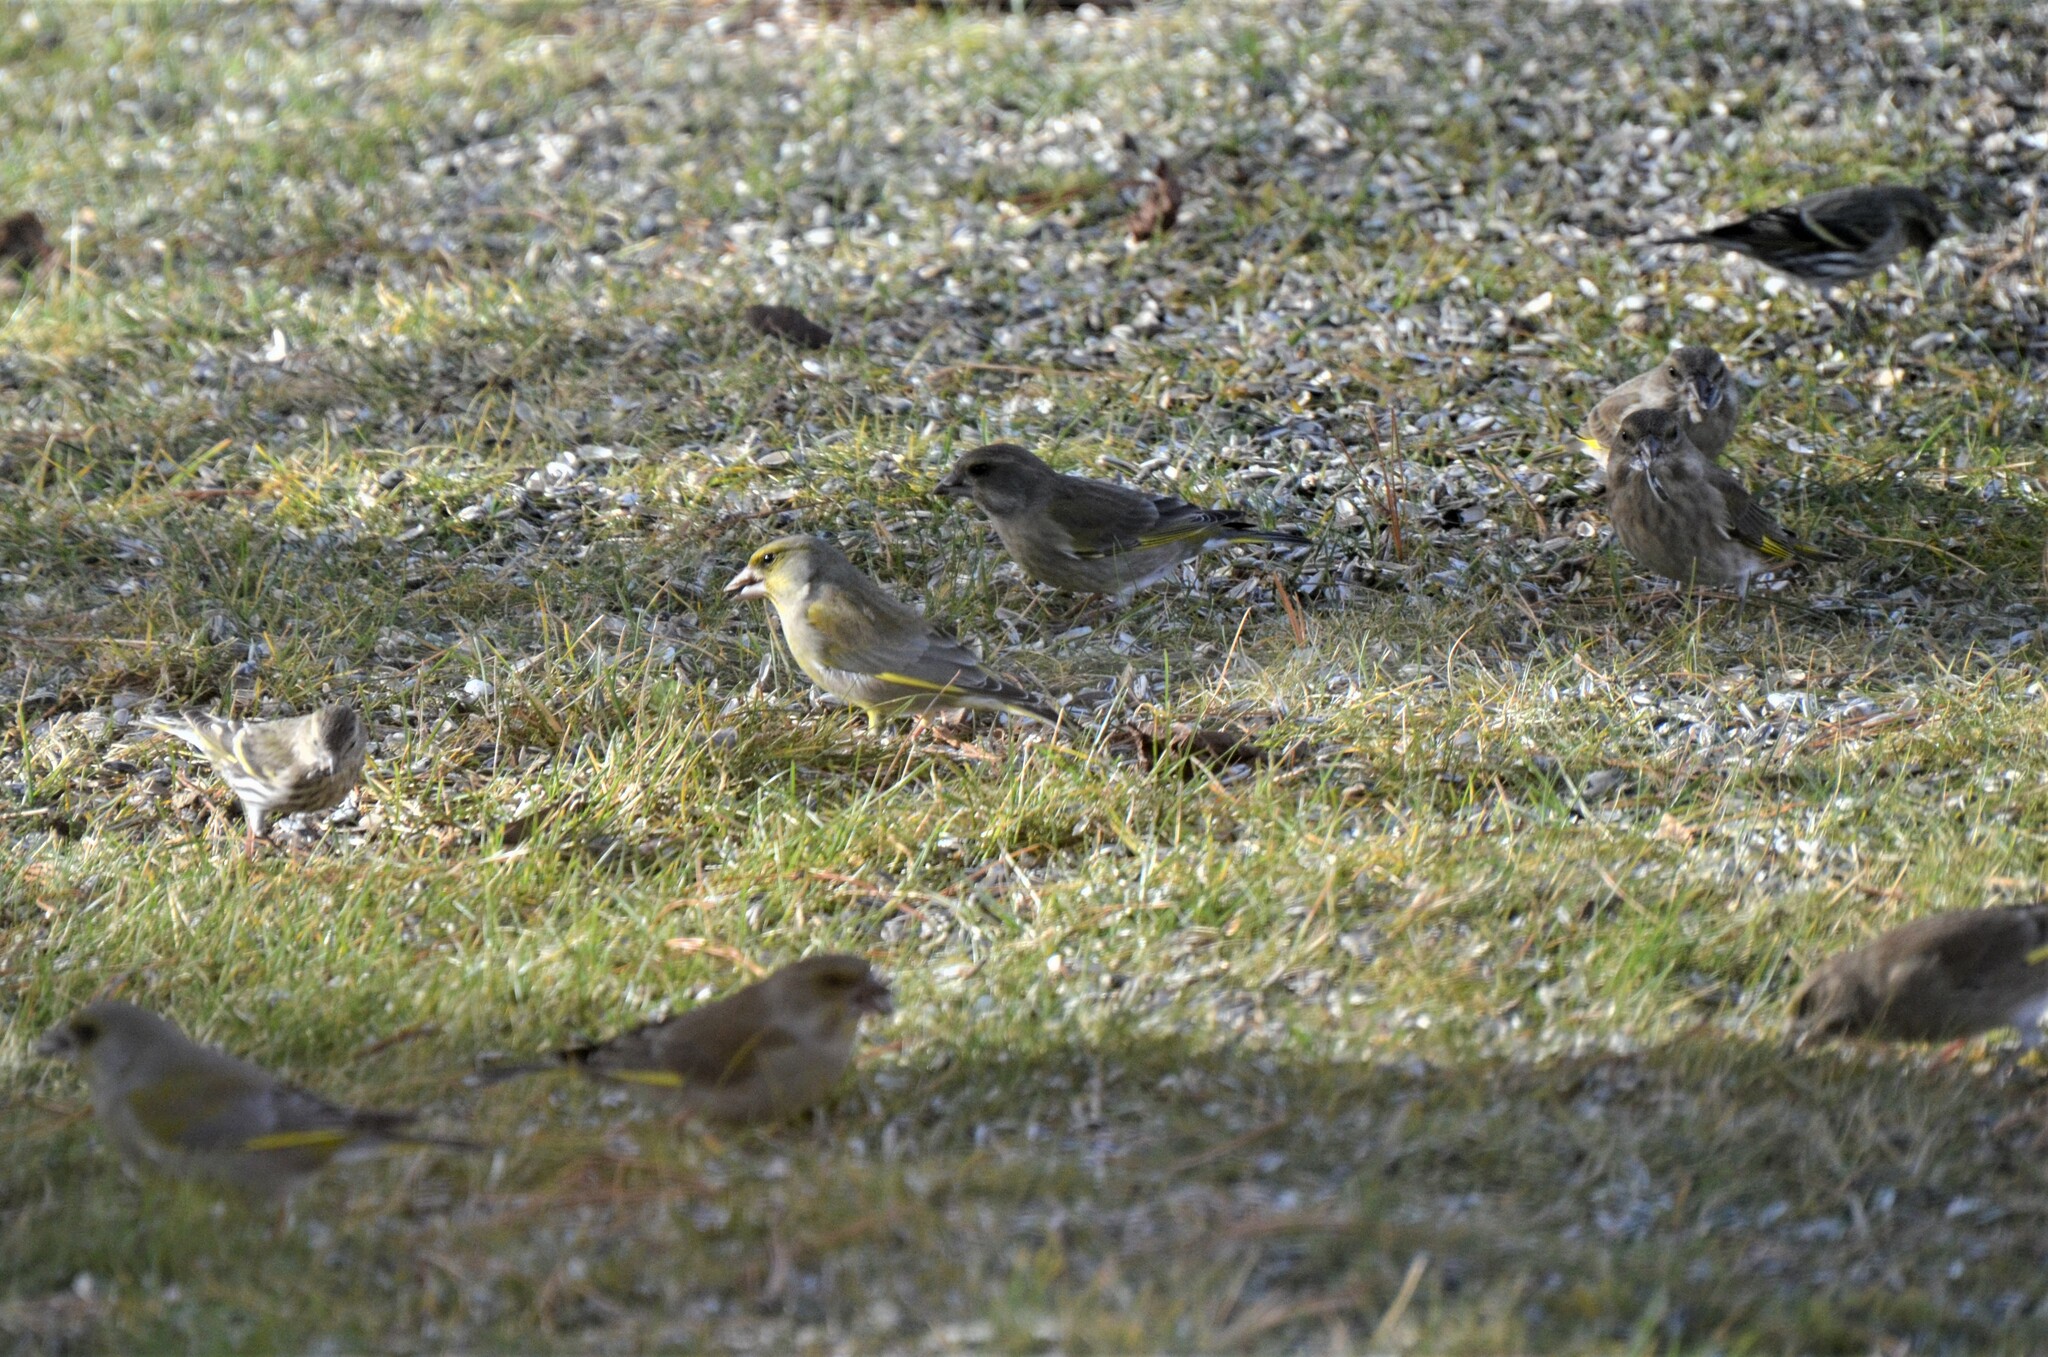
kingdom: Plantae
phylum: Tracheophyta
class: Liliopsida
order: Poales
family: Poaceae
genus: Chloris
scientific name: Chloris chloris
